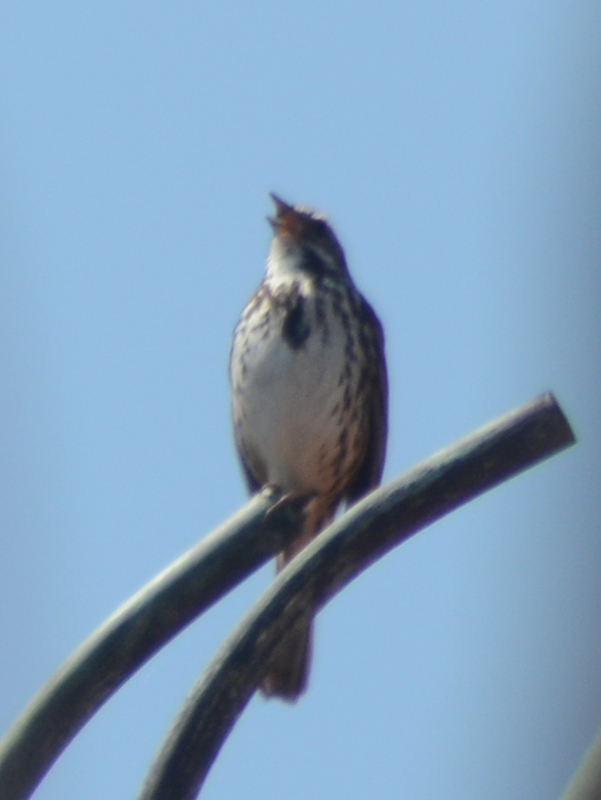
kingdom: Animalia
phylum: Chordata
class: Aves
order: Passeriformes
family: Passerellidae
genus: Melospiza
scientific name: Melospiza melodia
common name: Song sparrow
